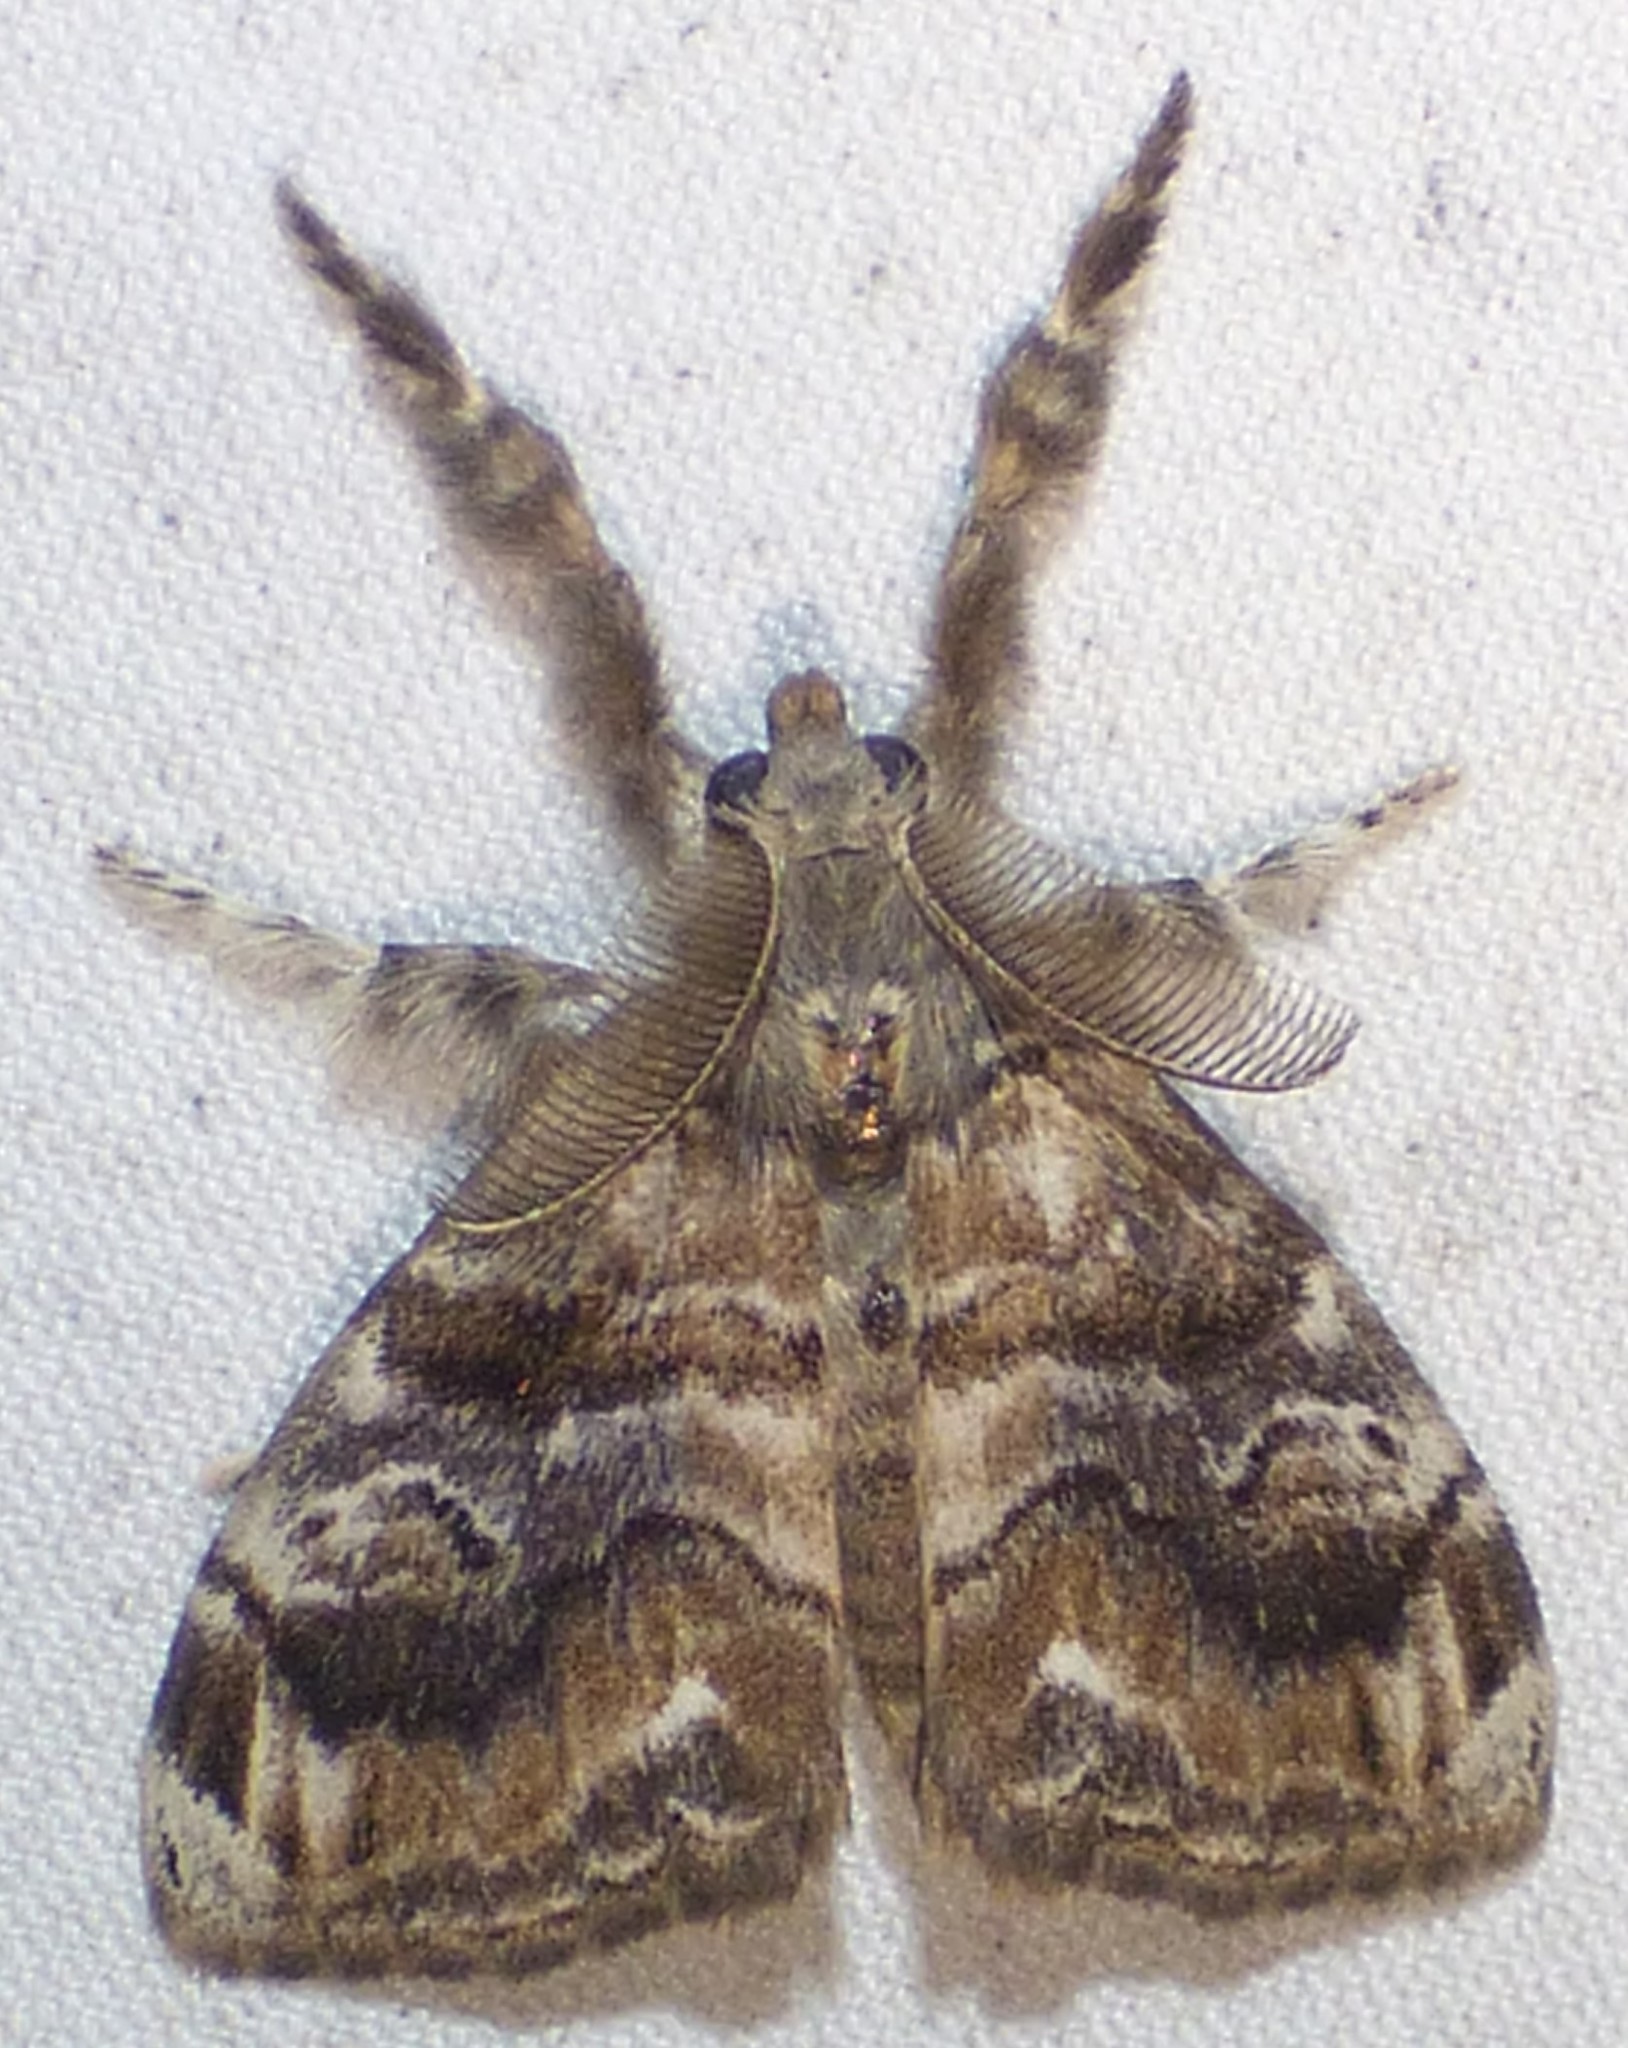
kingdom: Animalia
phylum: Arthropoda
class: Insecta
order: Lepidoptera
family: Erebidae
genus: Orgyia
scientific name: Orgyia definita
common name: Definite tussock moth
